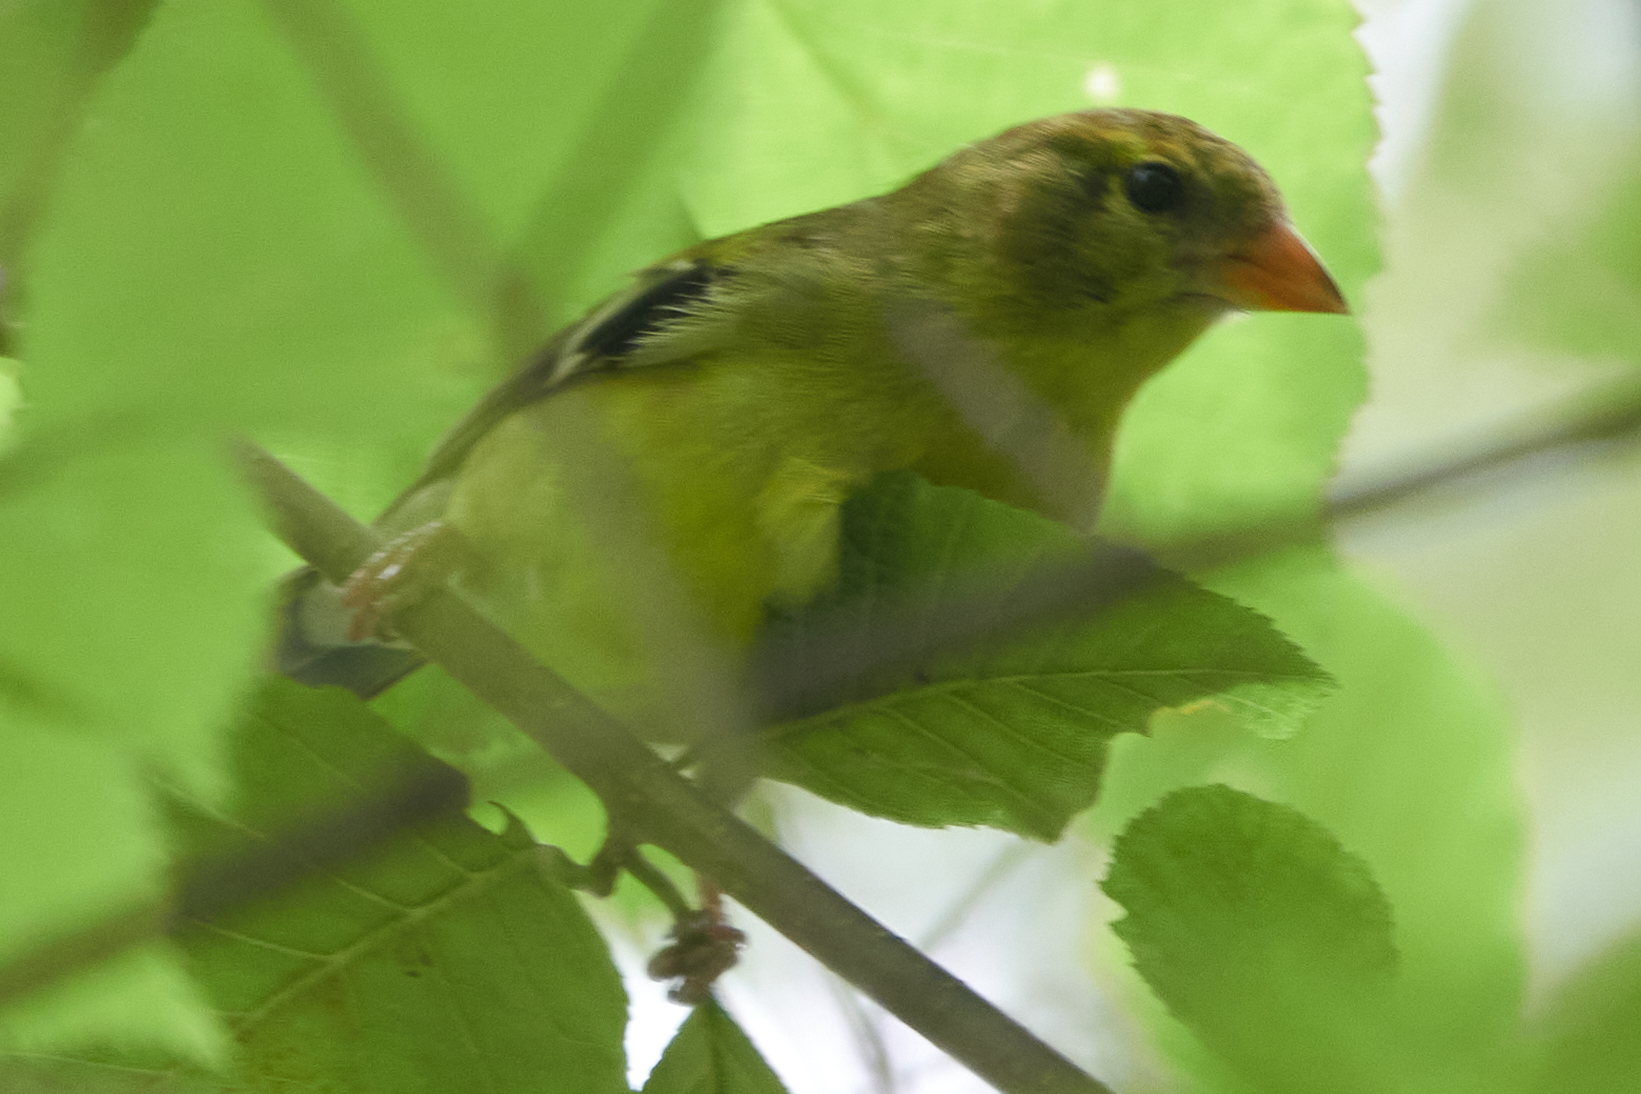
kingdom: Animalia
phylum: Chordata
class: Aves
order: Passeriformes
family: Fringillidae
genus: Spinus
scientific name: Spinus tristis
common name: American goldfinch
